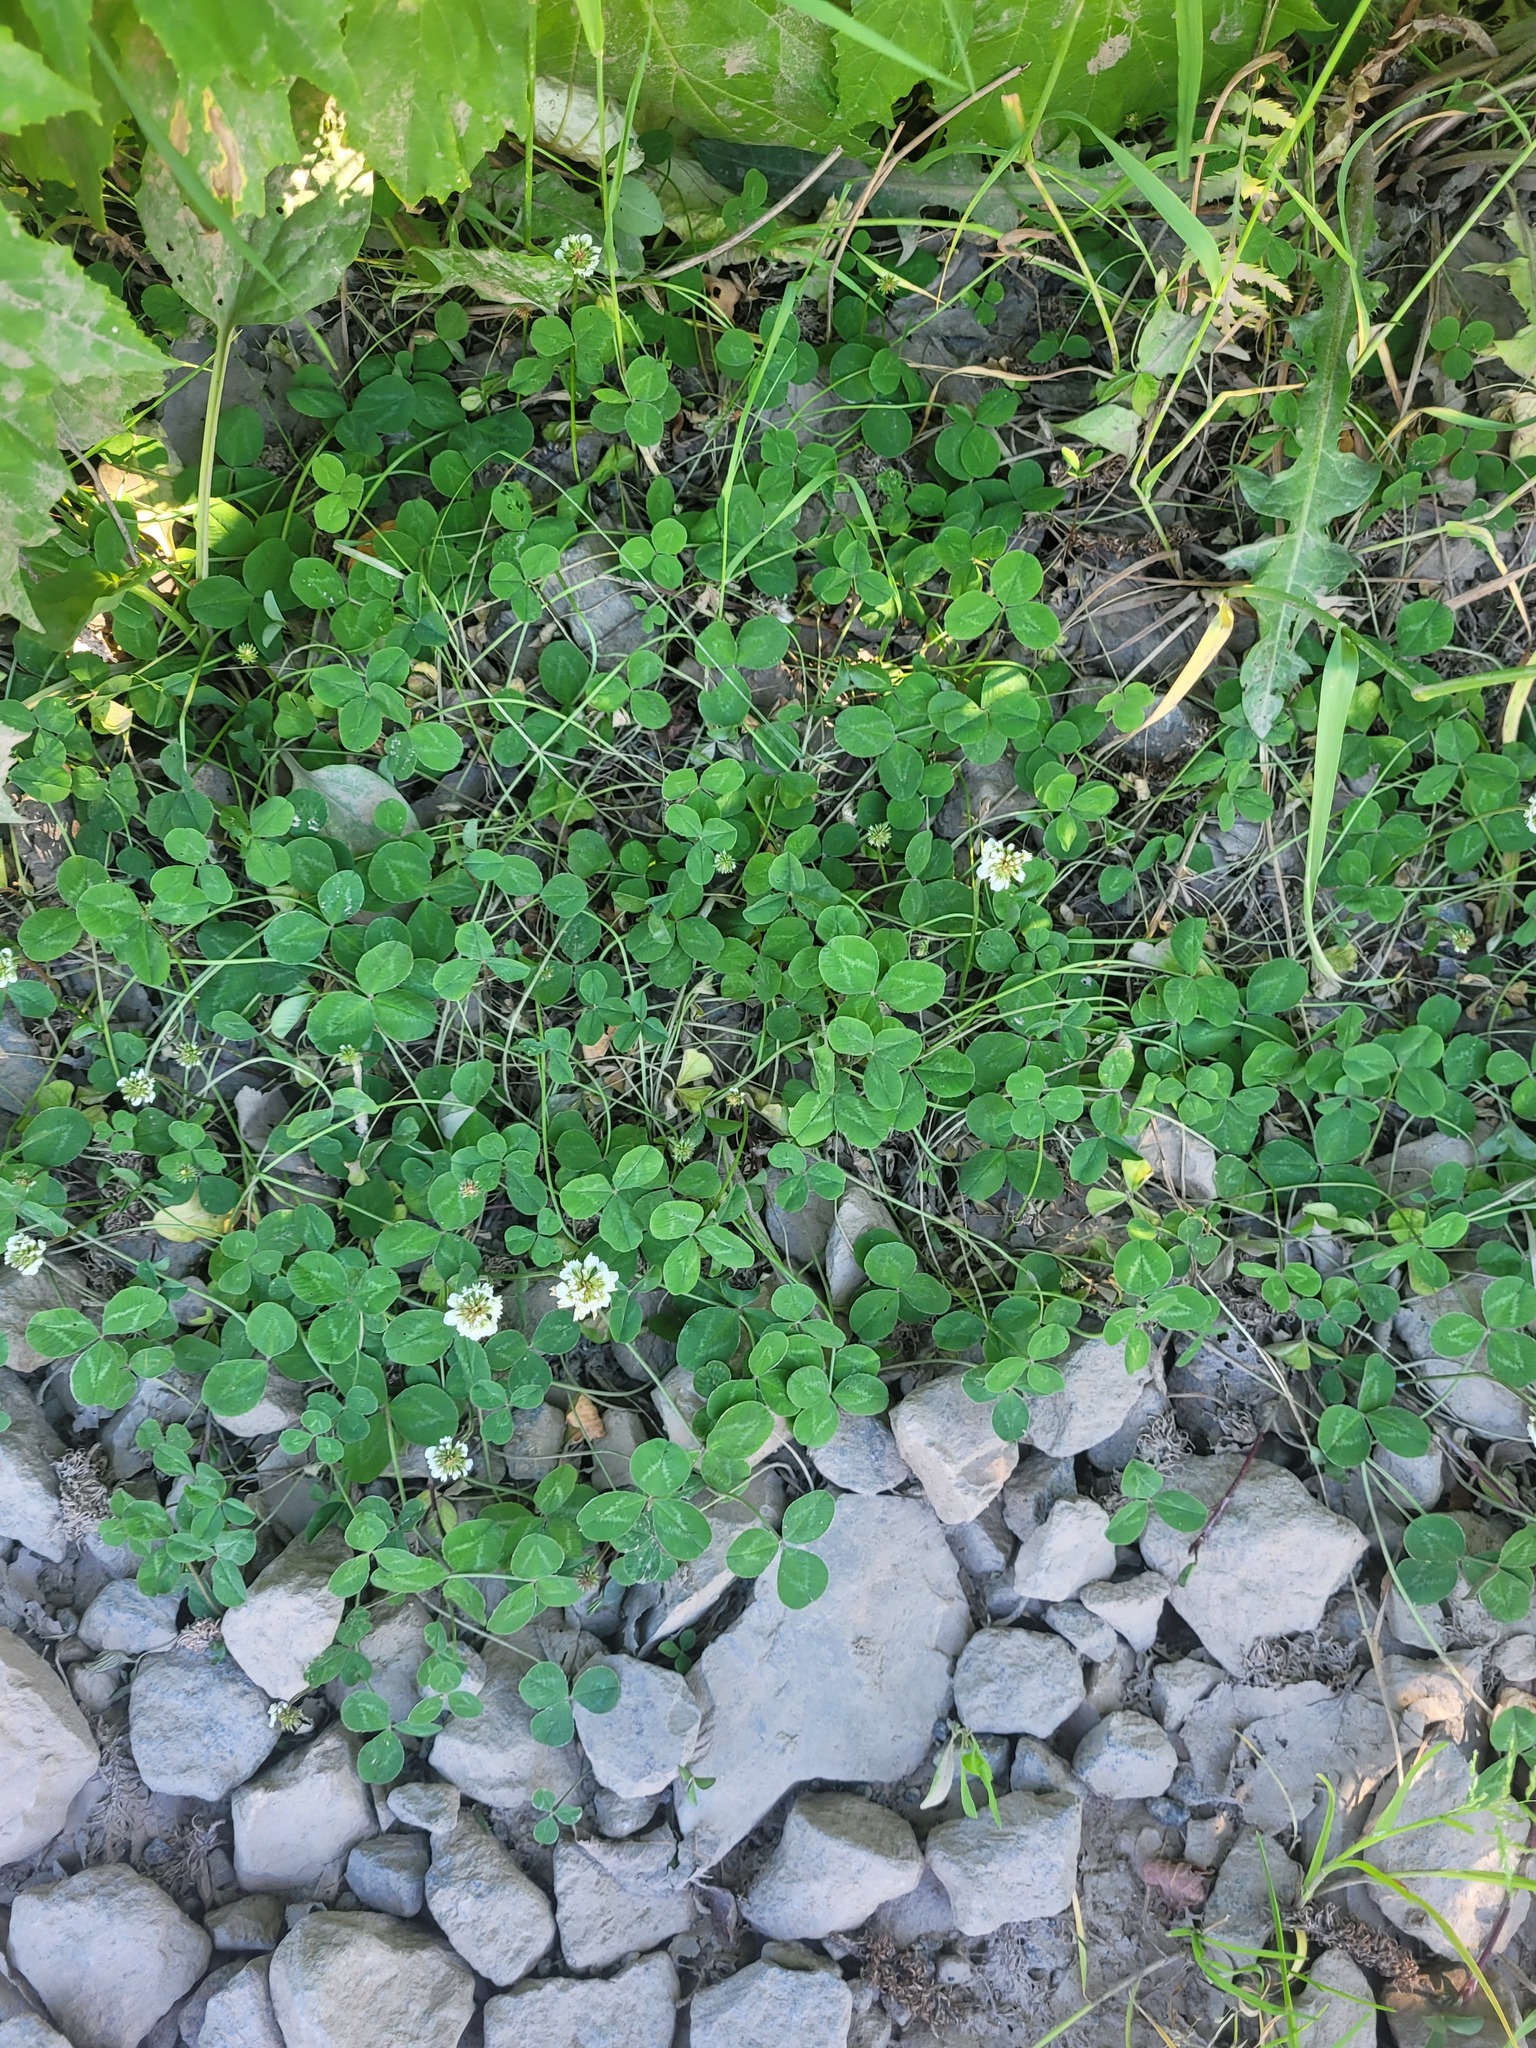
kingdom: Plantae
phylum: Tracheophyta
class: Magnoliopsida
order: Fabales
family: Fabaceae
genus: Trifolium
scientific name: Trifolium repens
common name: White clover
